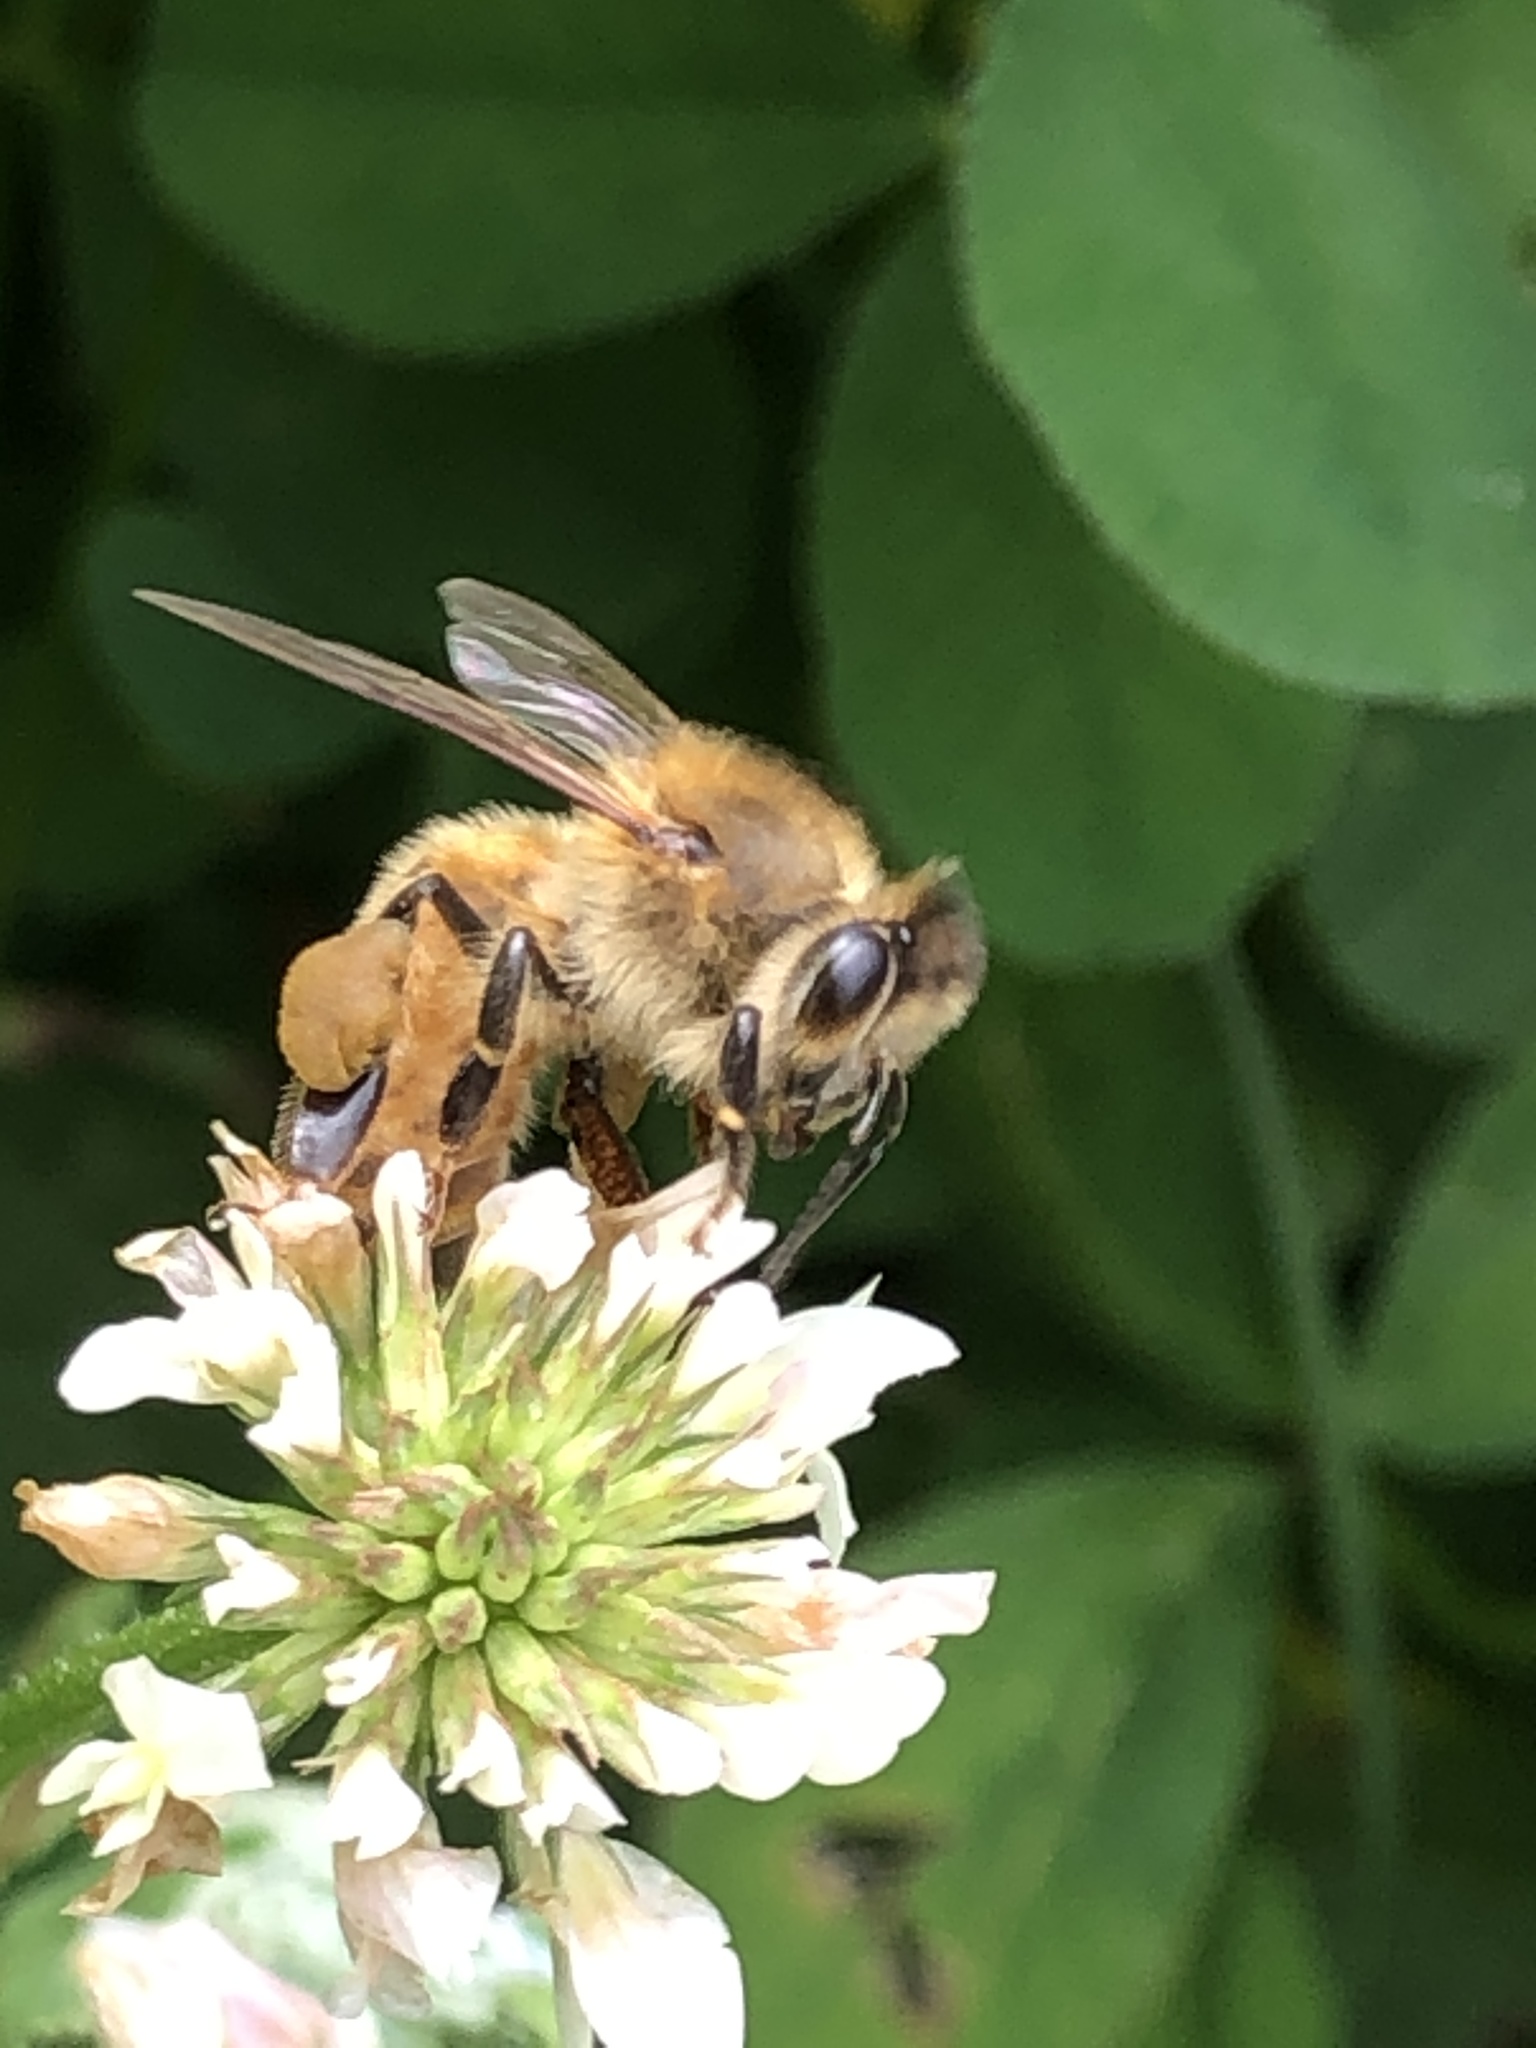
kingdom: Animalia
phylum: Arthropoda
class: Insecta
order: Hymenoptera
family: Apidae
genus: Apis
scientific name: Apis mellifera
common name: Honey bee
